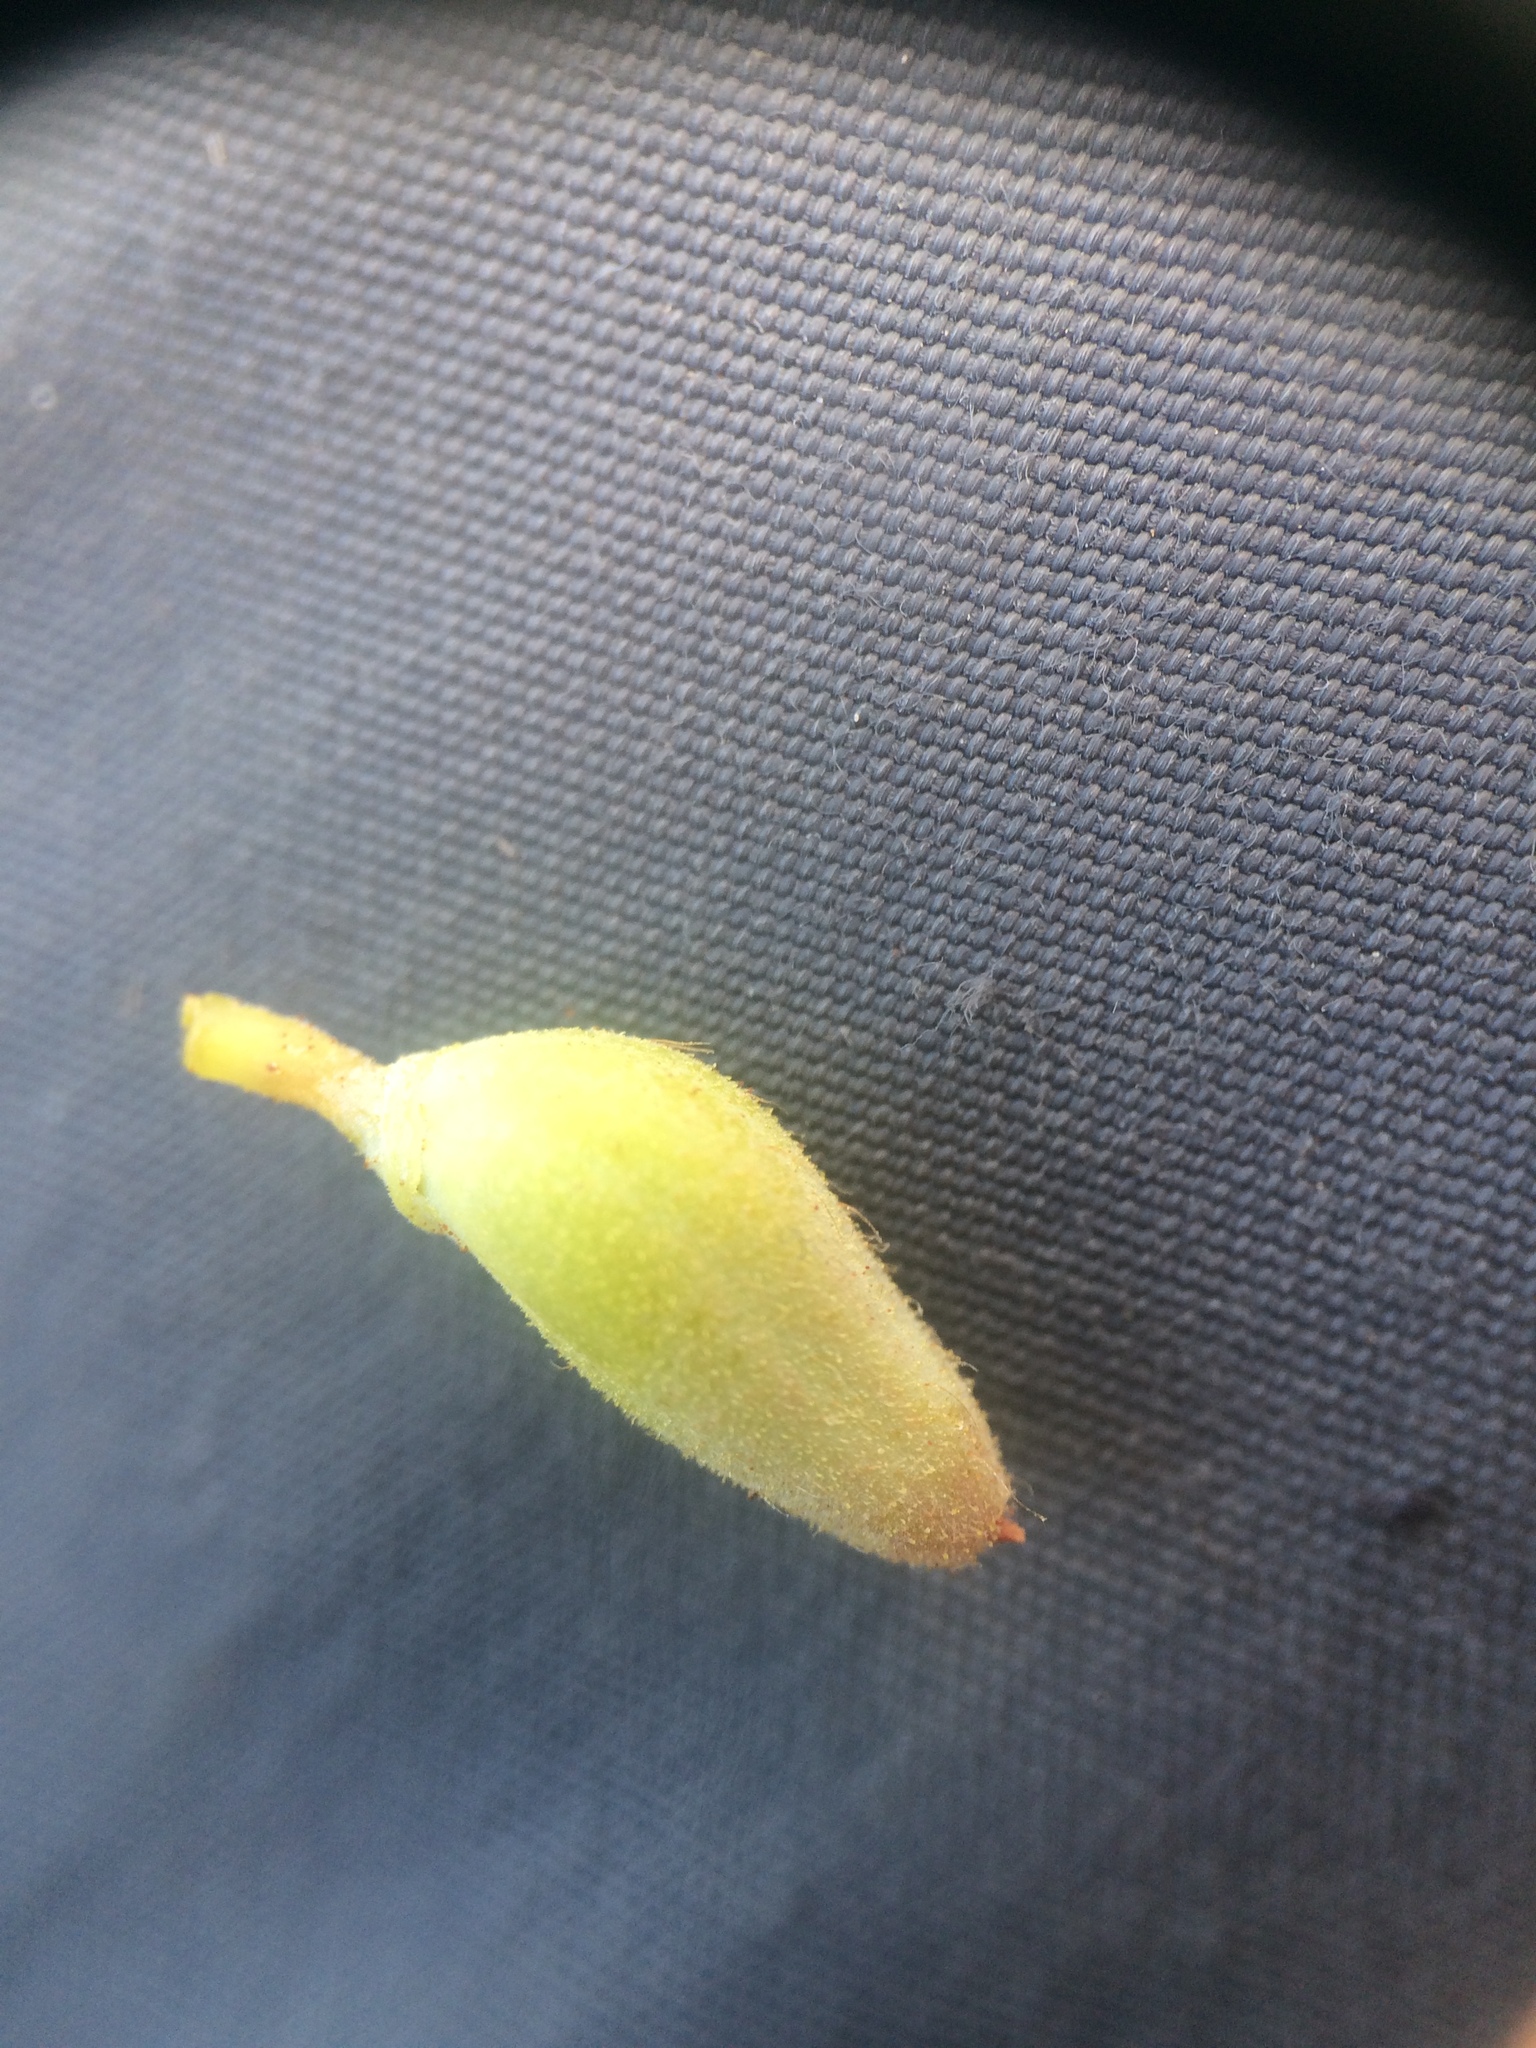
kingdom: Plantae
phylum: Tracheophyta
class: Magnoliopsida
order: Ericales
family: Ericaceae
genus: Rhododendron
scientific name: Rhododendron canadense
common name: Rhodora
